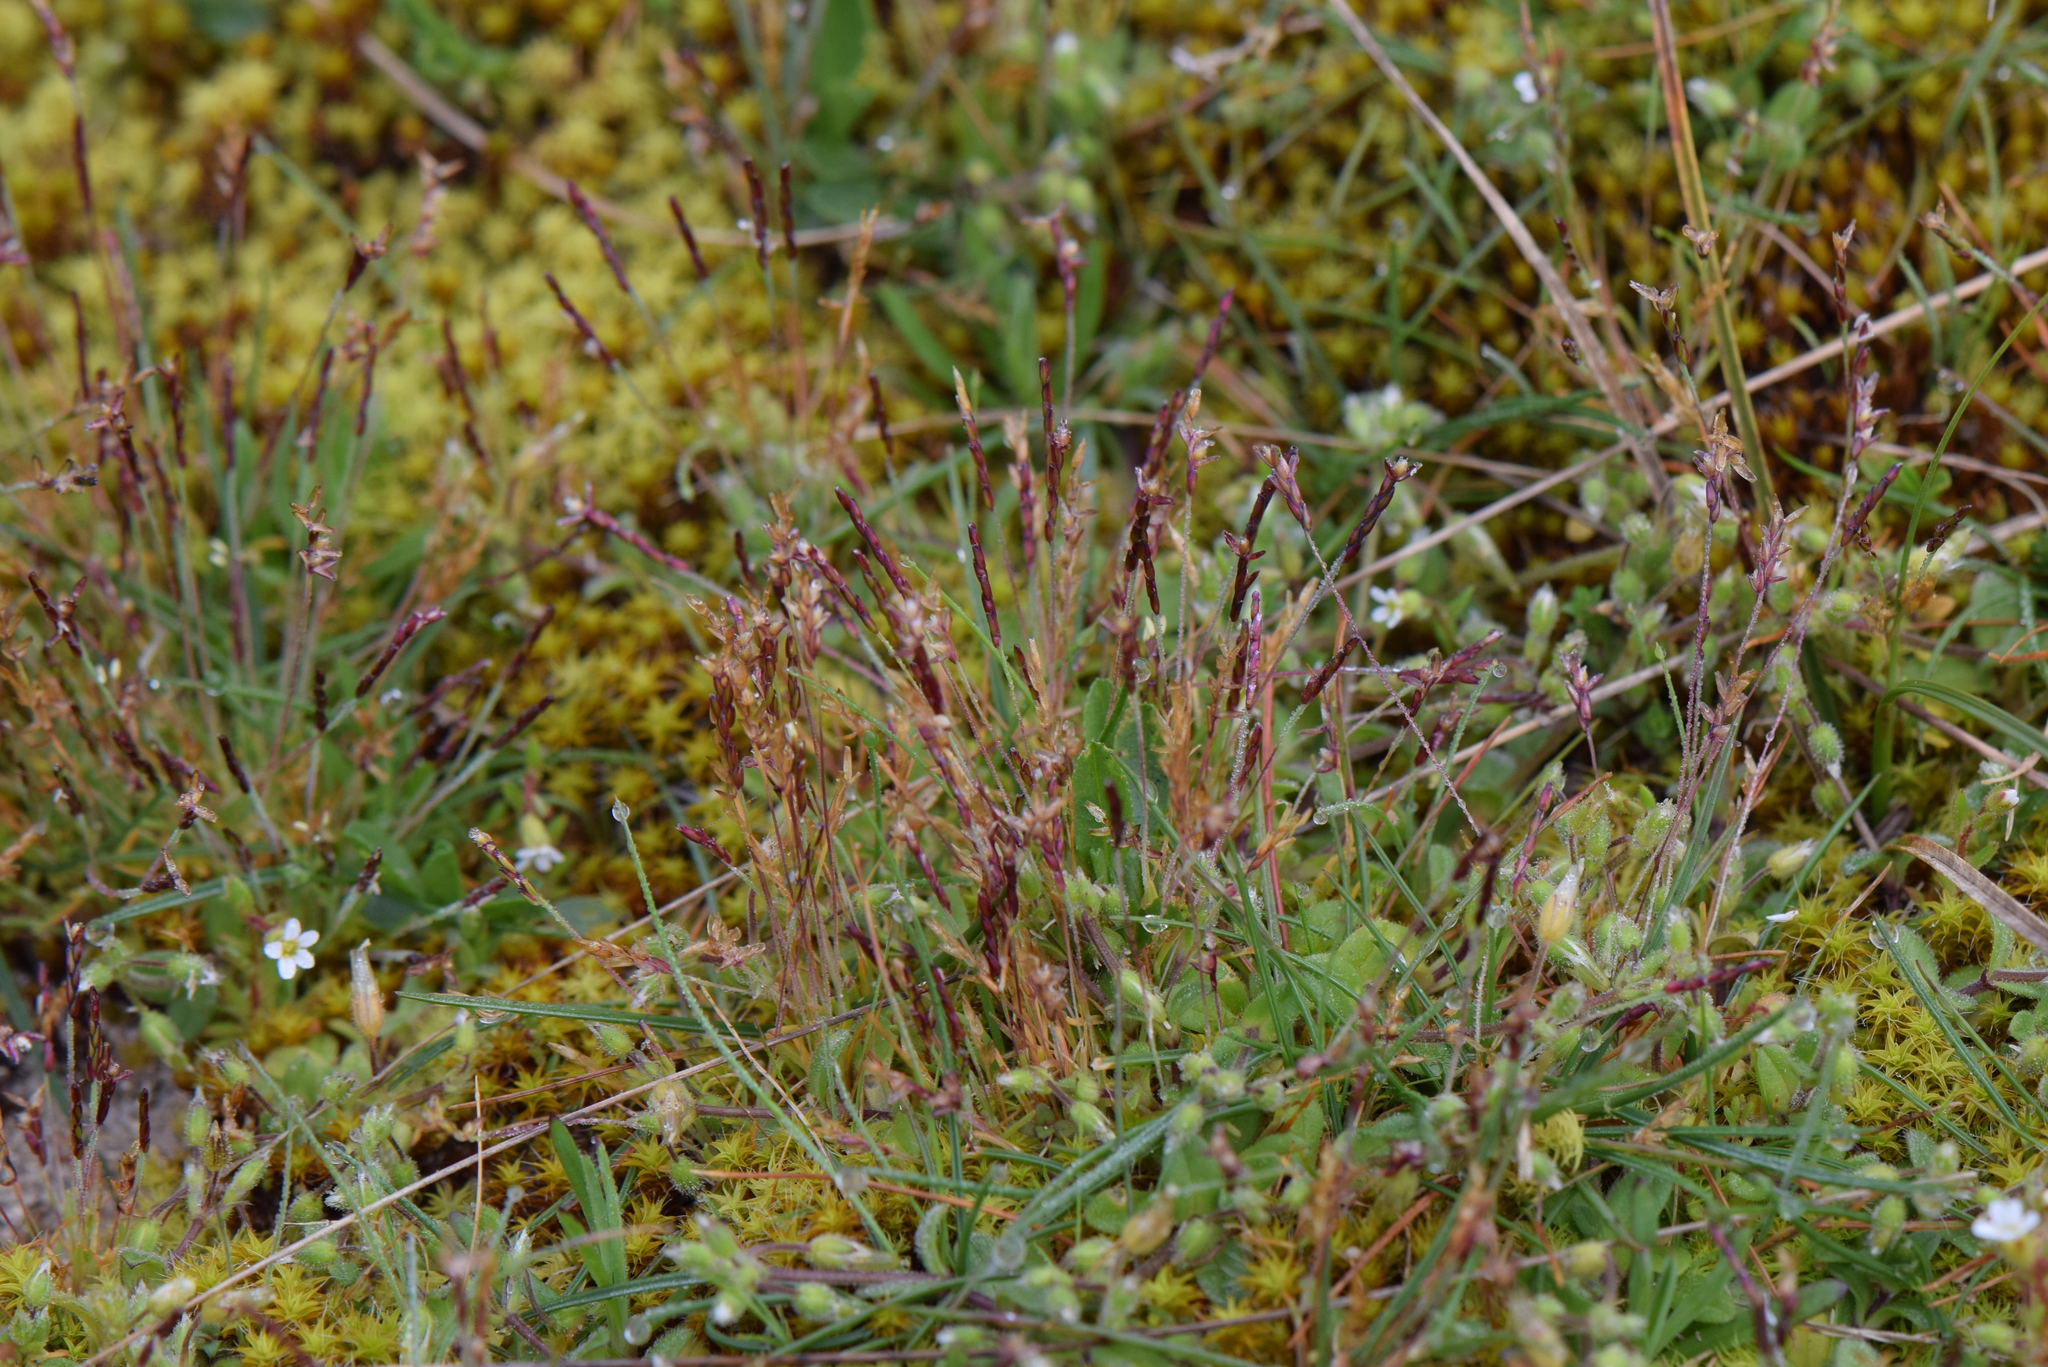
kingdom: Plantae
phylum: Tracheophyta
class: Liliopsida
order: Poales
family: Poaceae
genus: Mibora
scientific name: Mibora minima
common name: Early sand-grass
